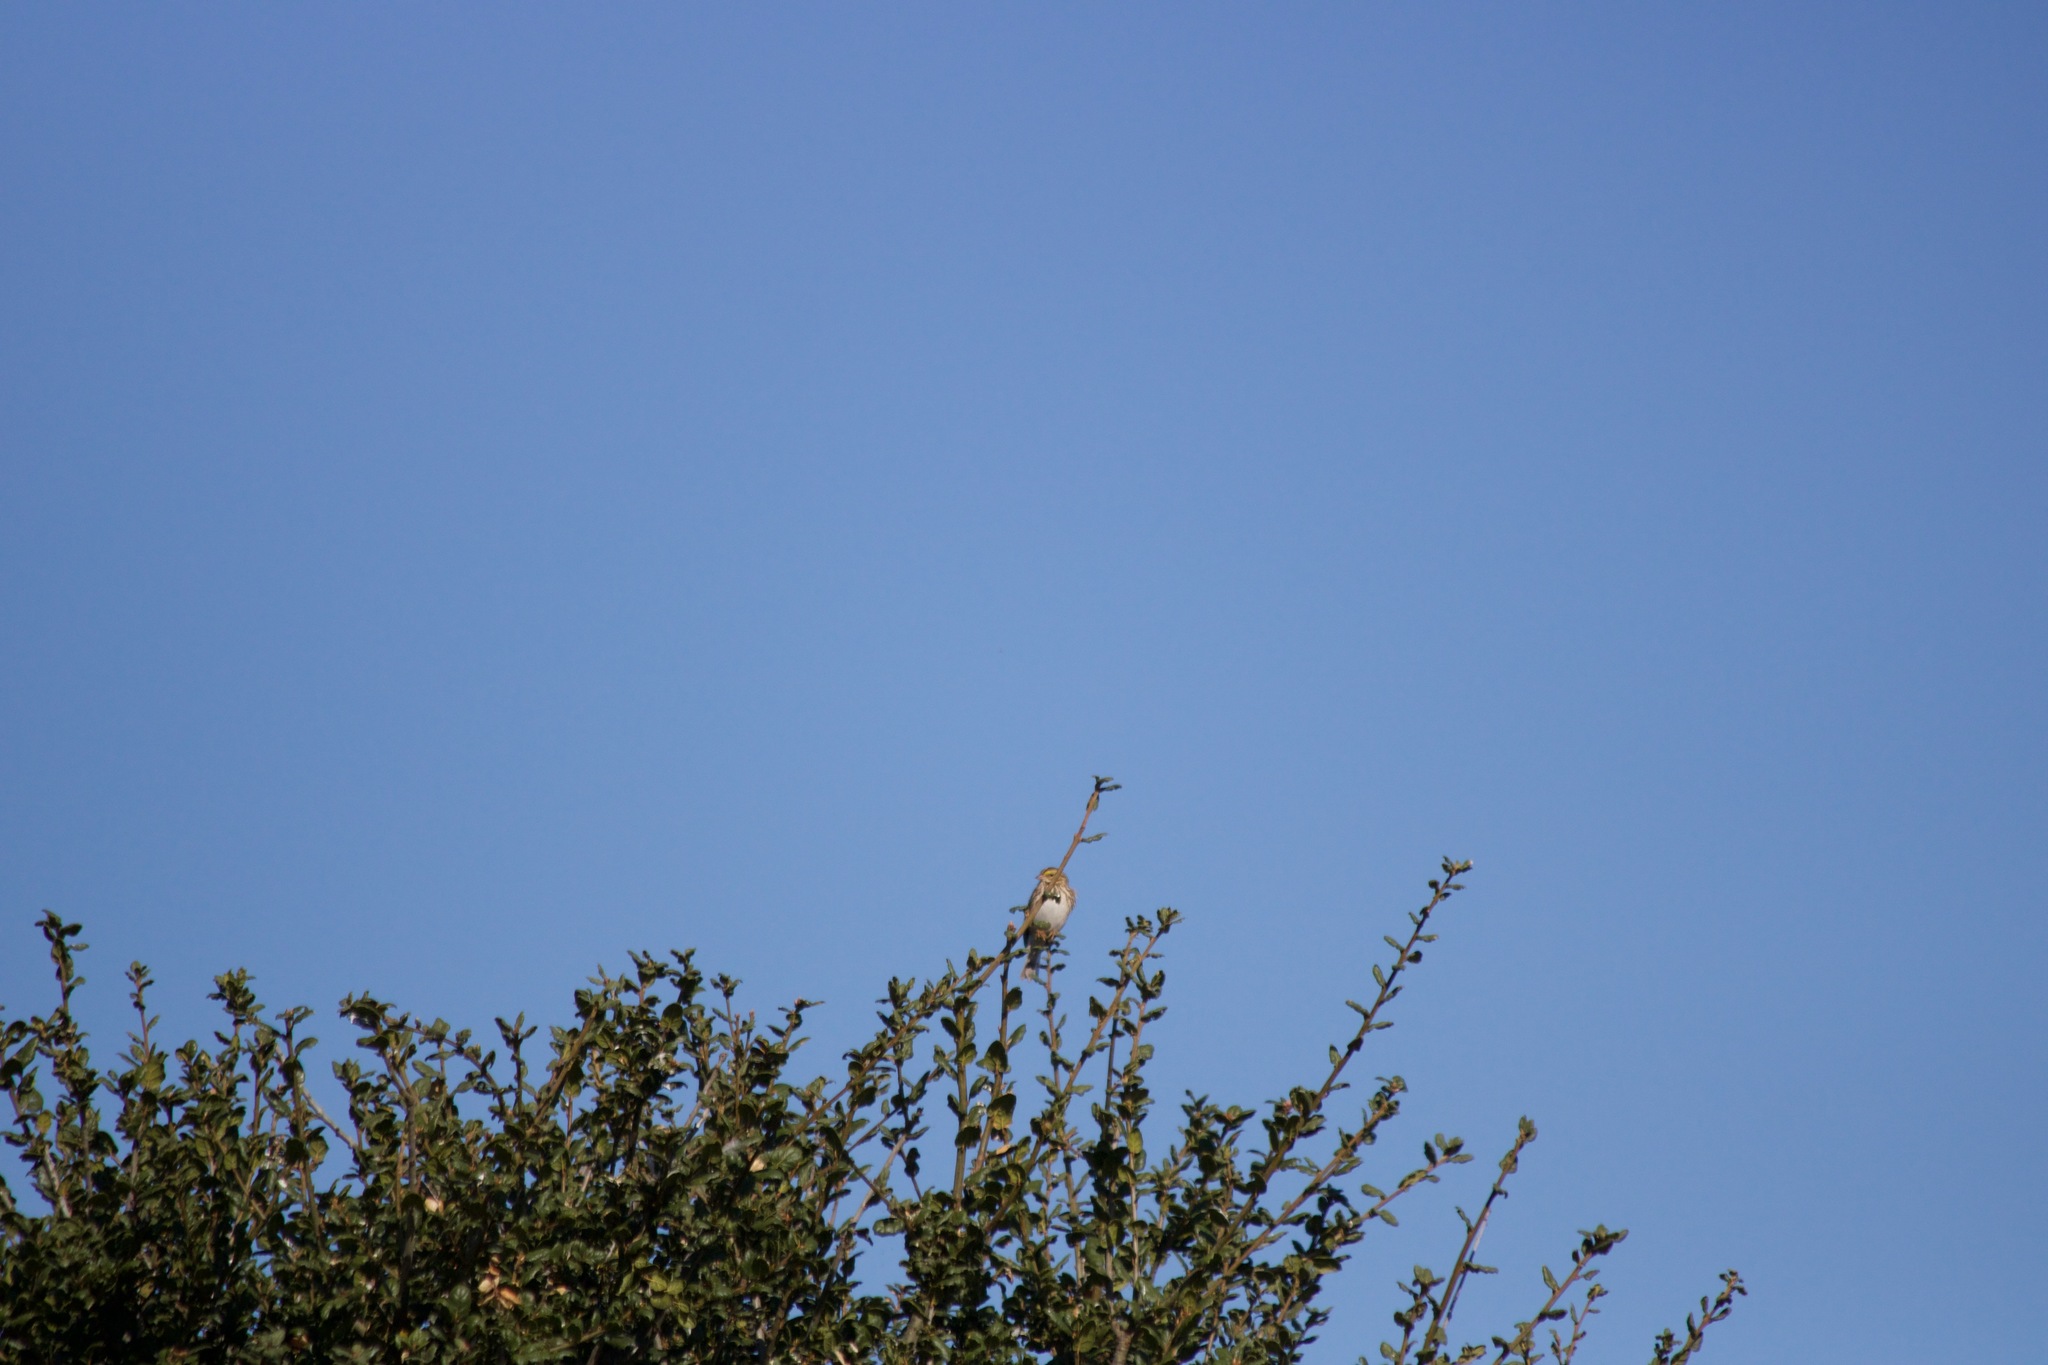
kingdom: Animalia
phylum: Chordata
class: Aves
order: Passeriformes
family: Passerellidae
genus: Passerculus
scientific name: Passerculus sandwichensis
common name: Savannah sparrow
